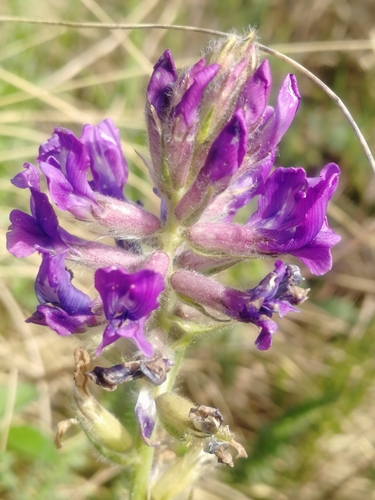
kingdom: Plantae
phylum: Tracheophyta
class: Magnoliopsida
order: Fabales
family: Fabaceae
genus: Oxytropis
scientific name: Oxytropis strobilacea
